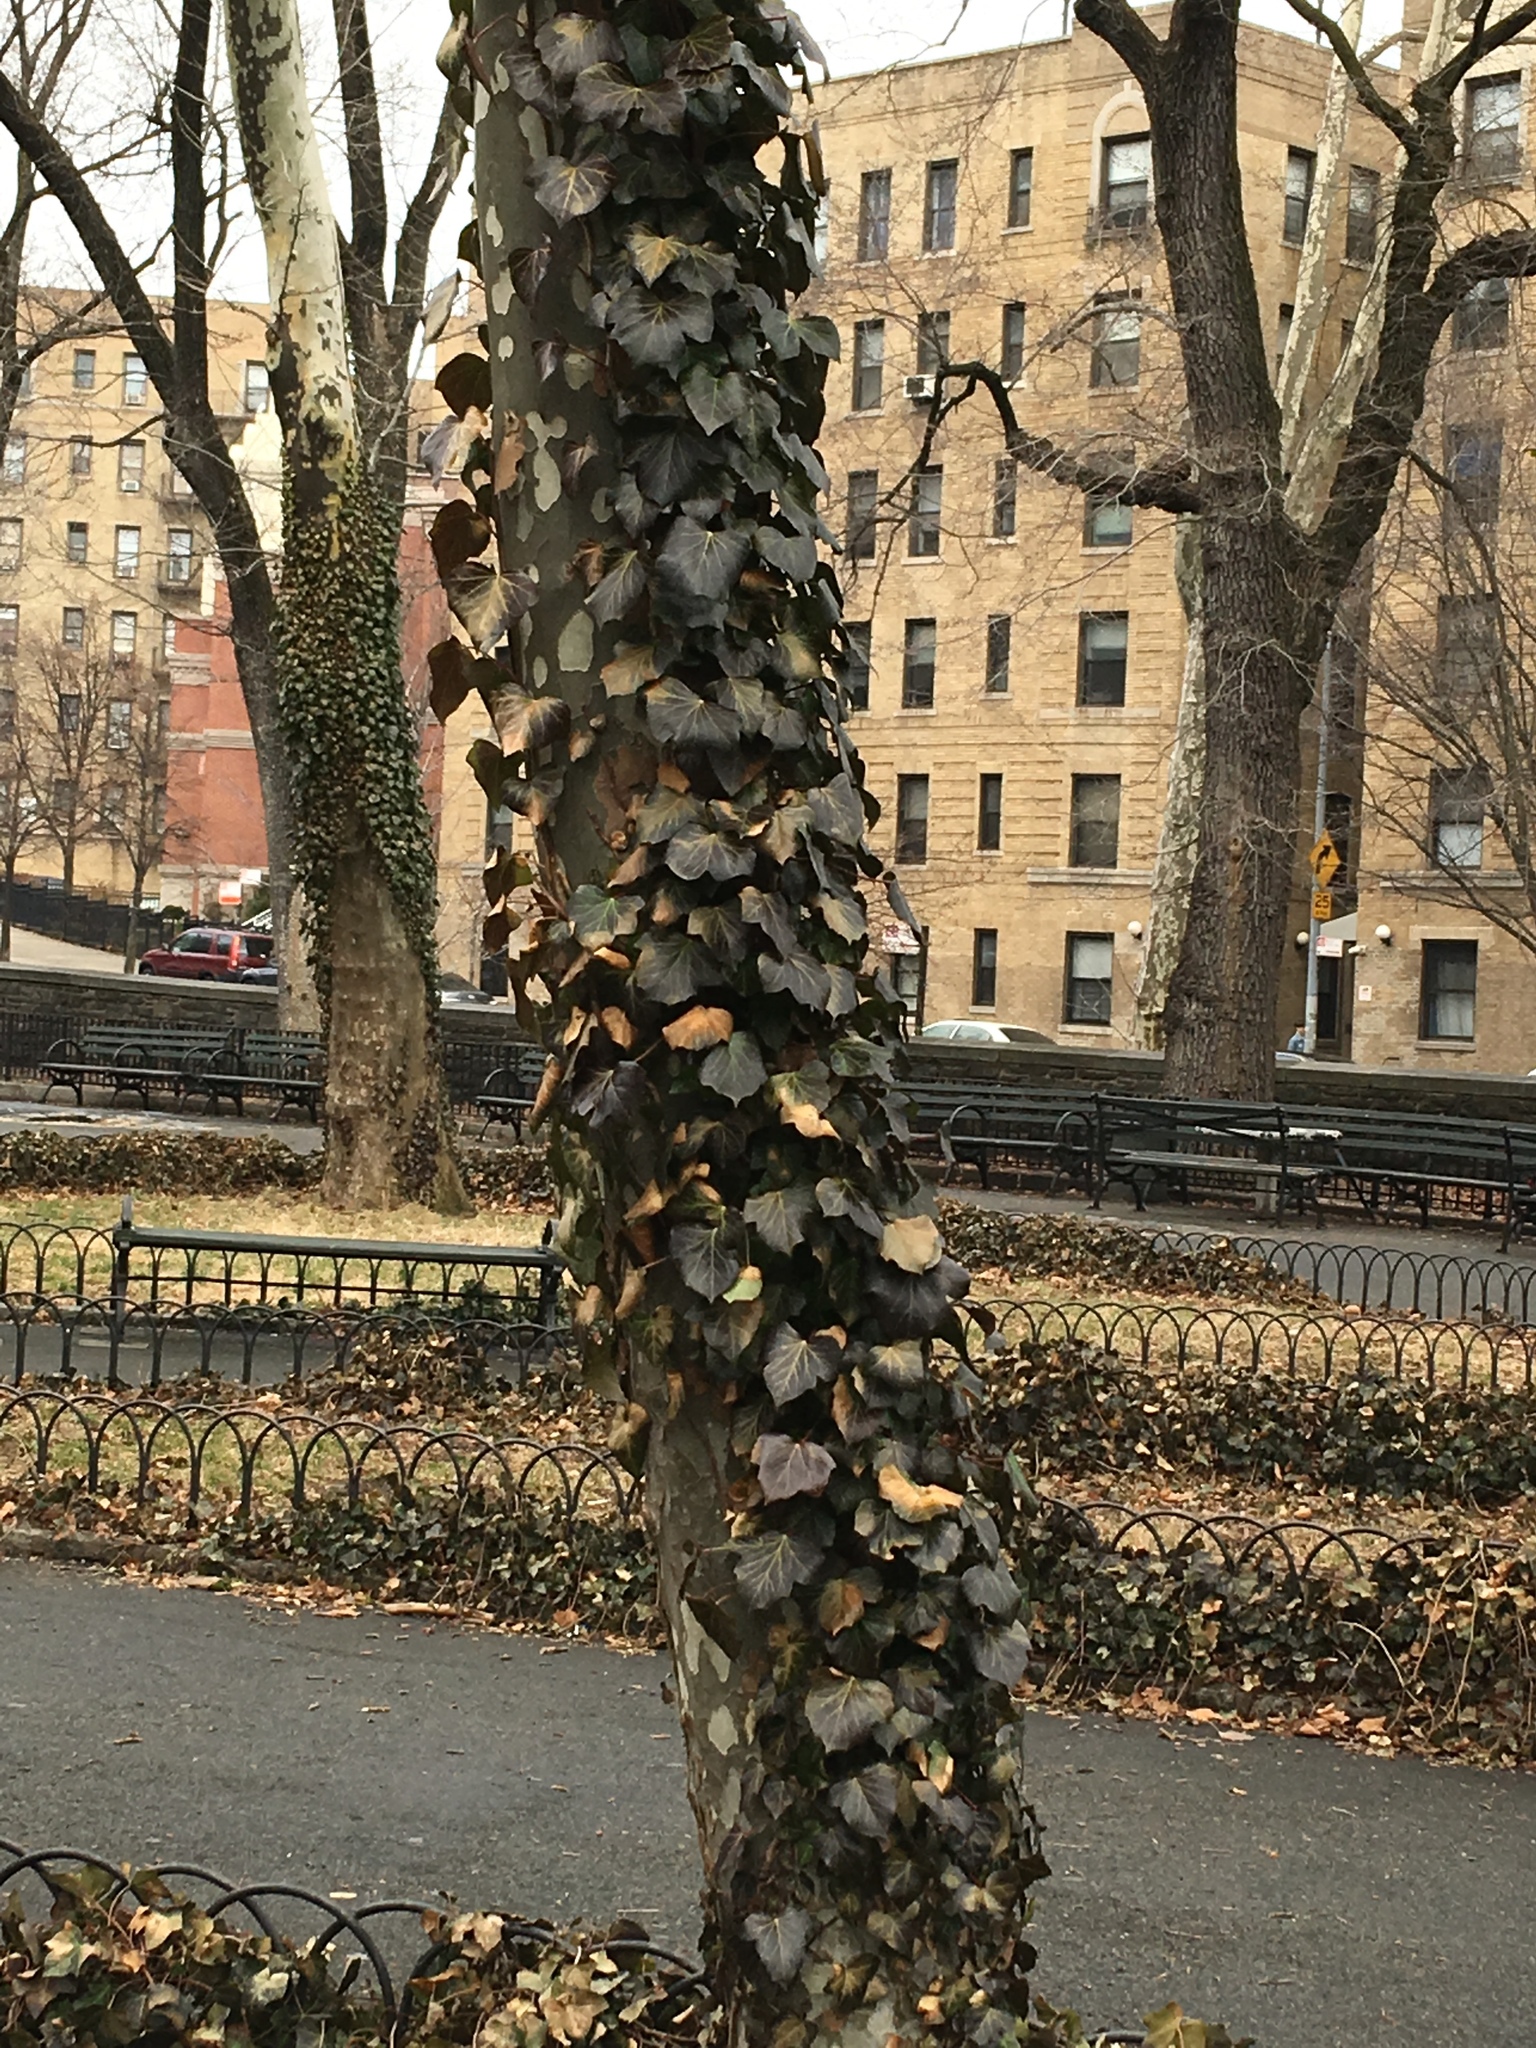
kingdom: Plantae
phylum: Tracheophyta
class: Magnoliopsida
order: Apiales
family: Araliaceae
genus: Hedera
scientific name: Hedera helix
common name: Ivy
